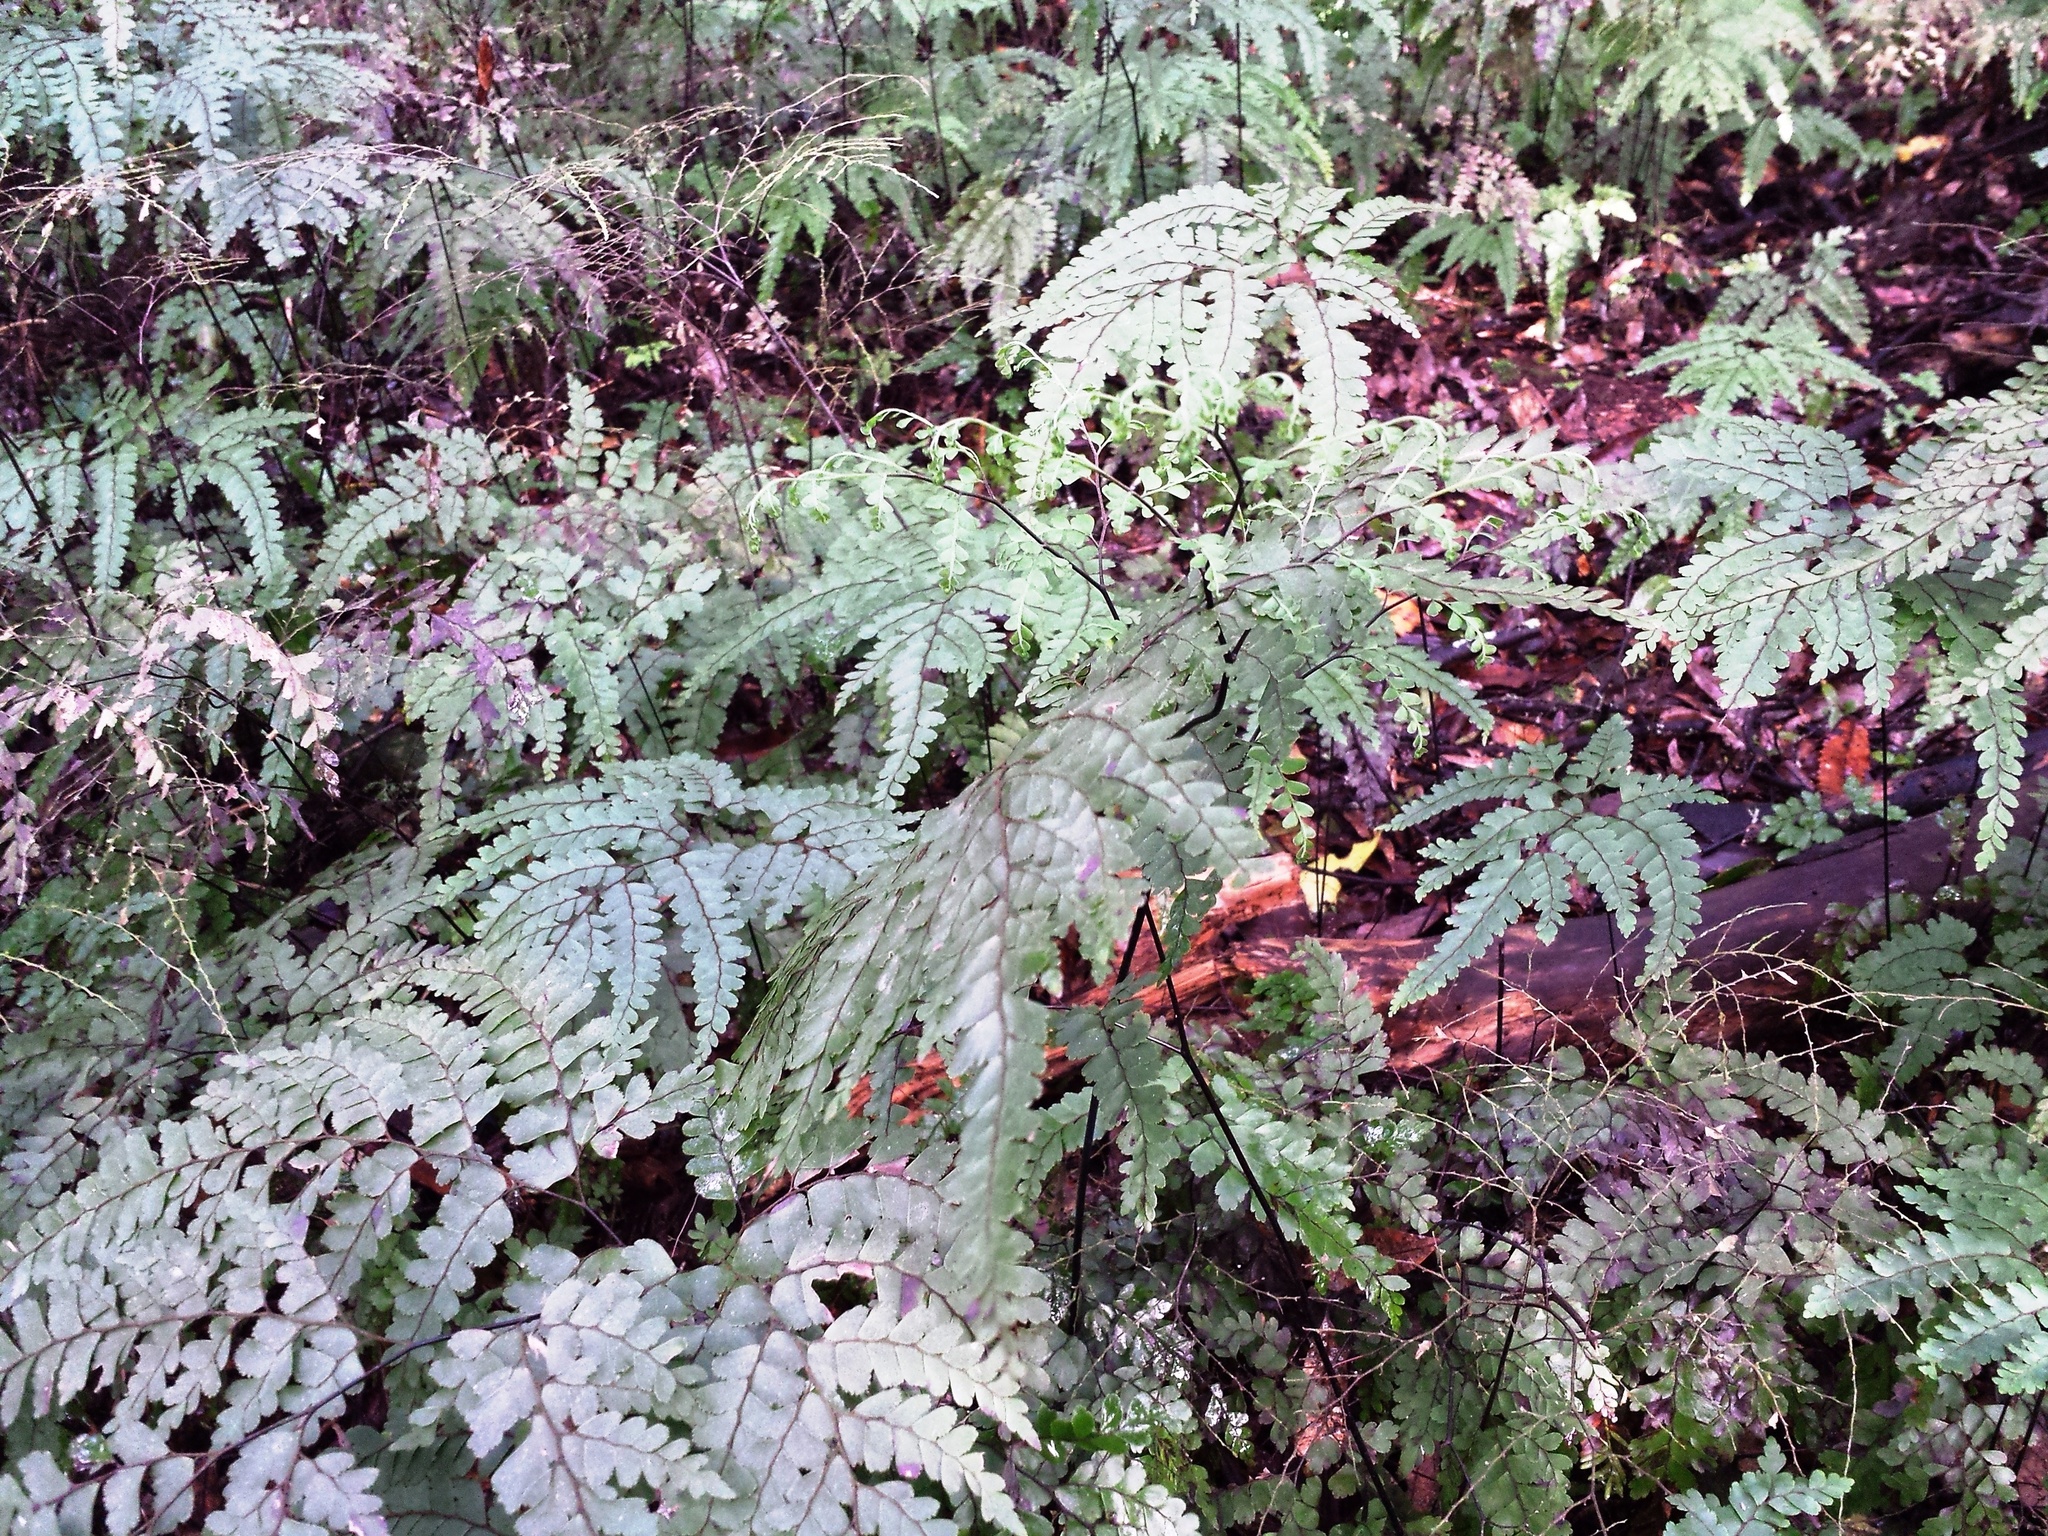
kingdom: Plantae
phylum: Tracheophyta
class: Polypodiopsida
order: Polypodiales
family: Pteridaceae
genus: Adiantum
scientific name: Adiantum formosum
